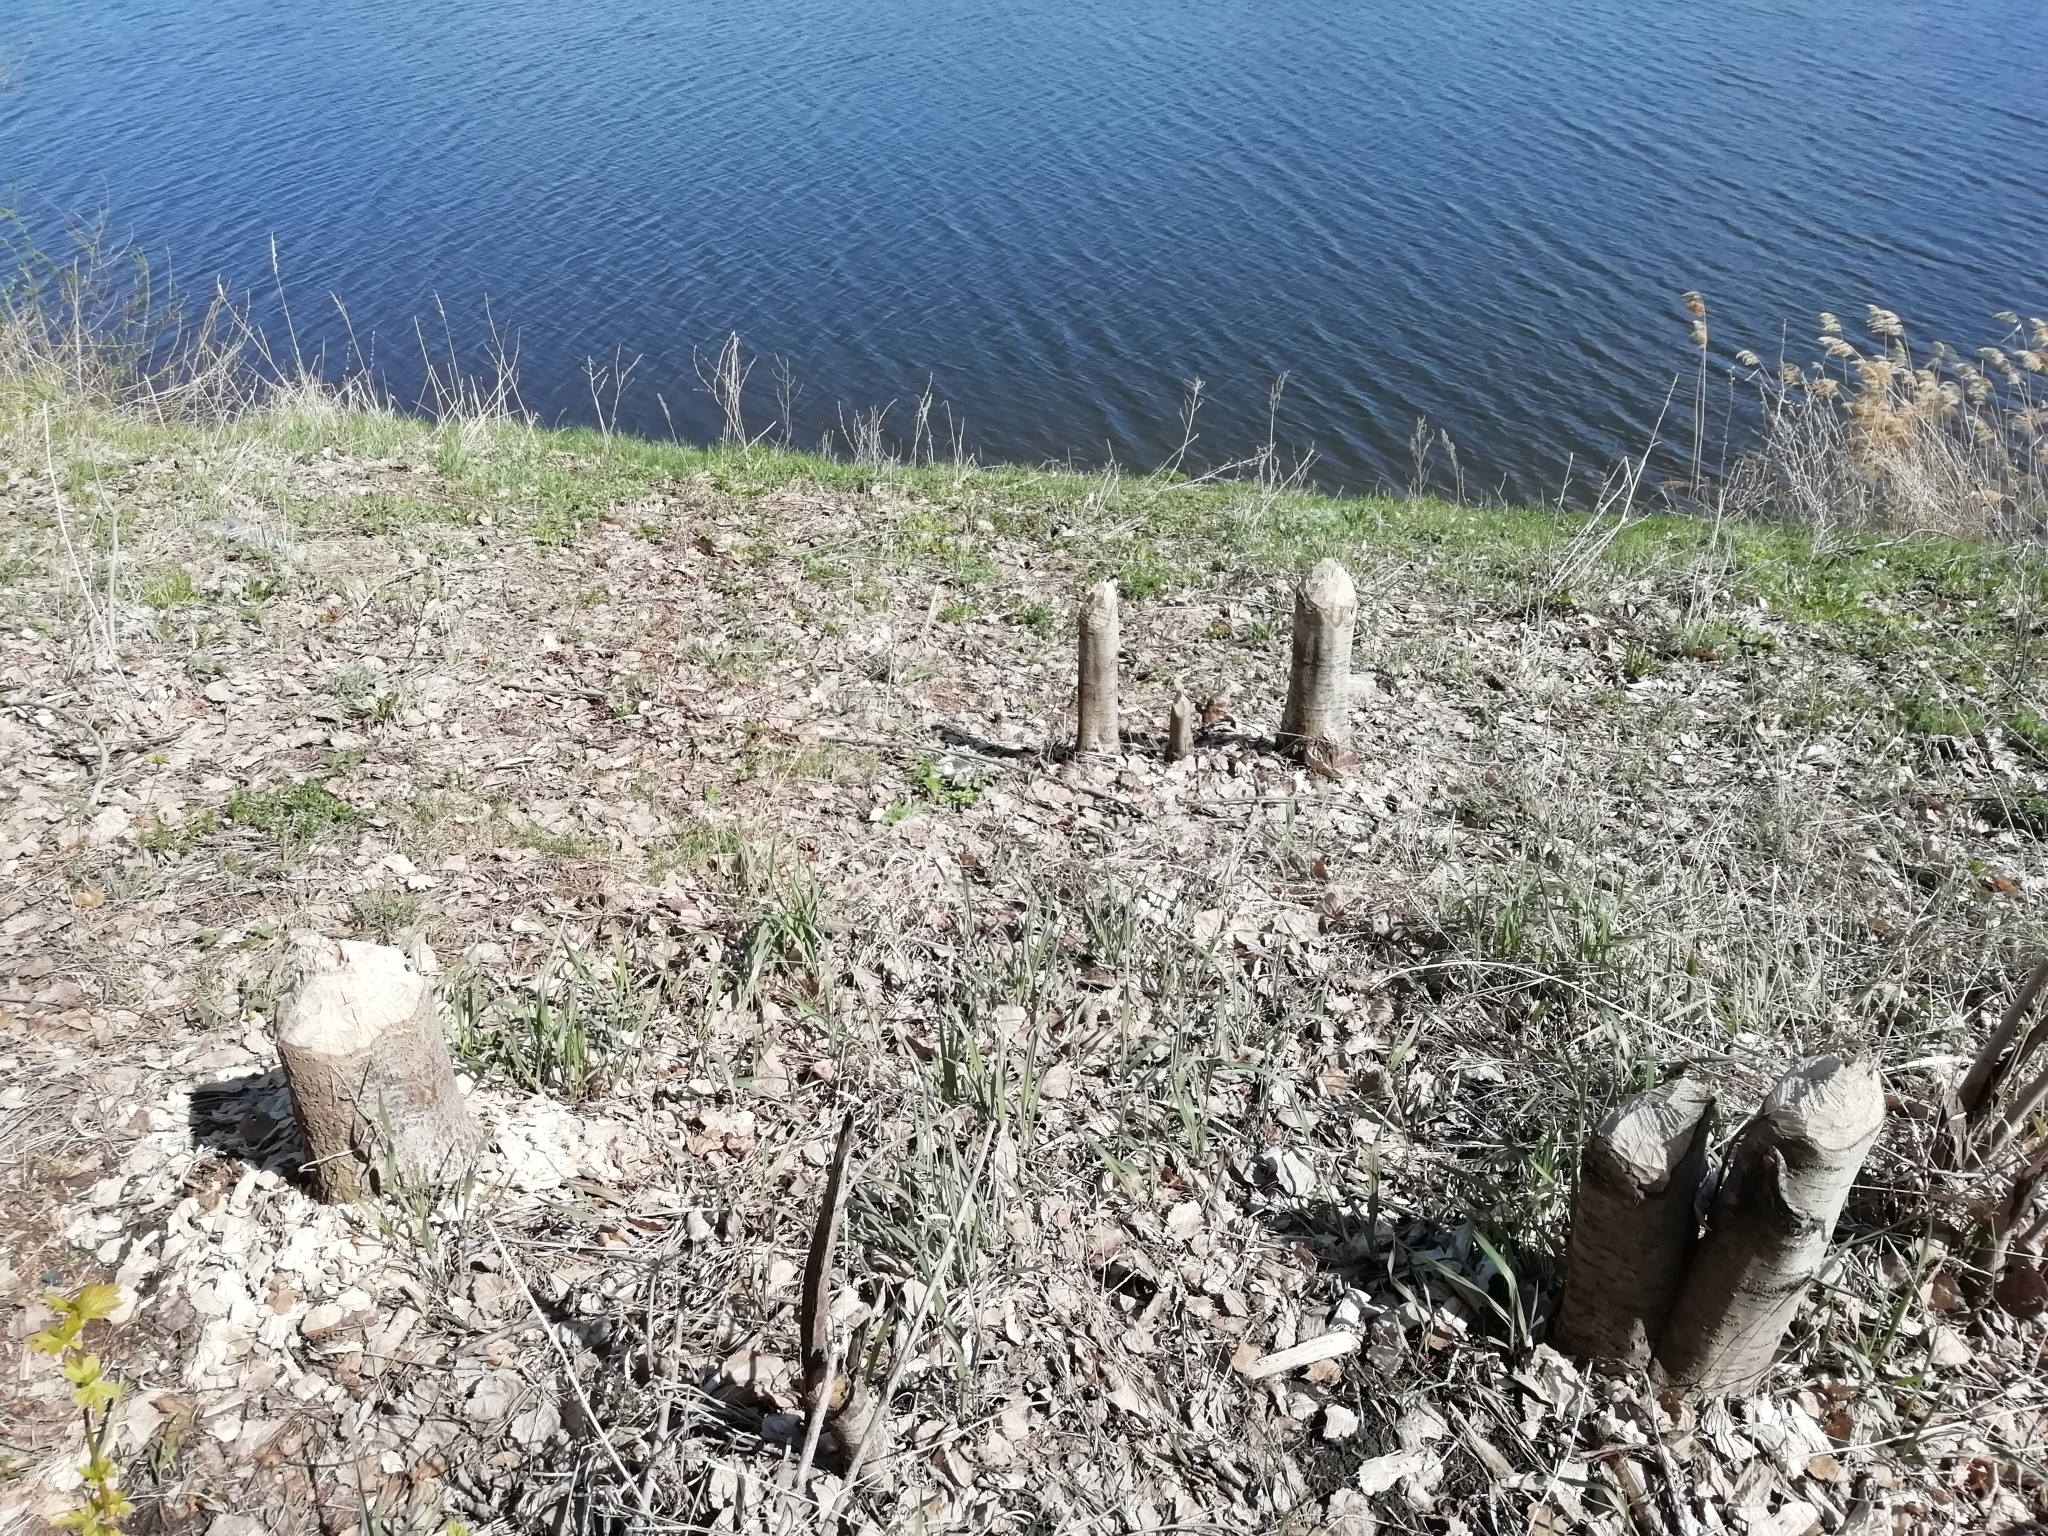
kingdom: Animalia
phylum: Chordata
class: Mammalia
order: Rodentia
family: Castoridae
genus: Castor
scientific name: Castor fiber
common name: Eurasian beaver
